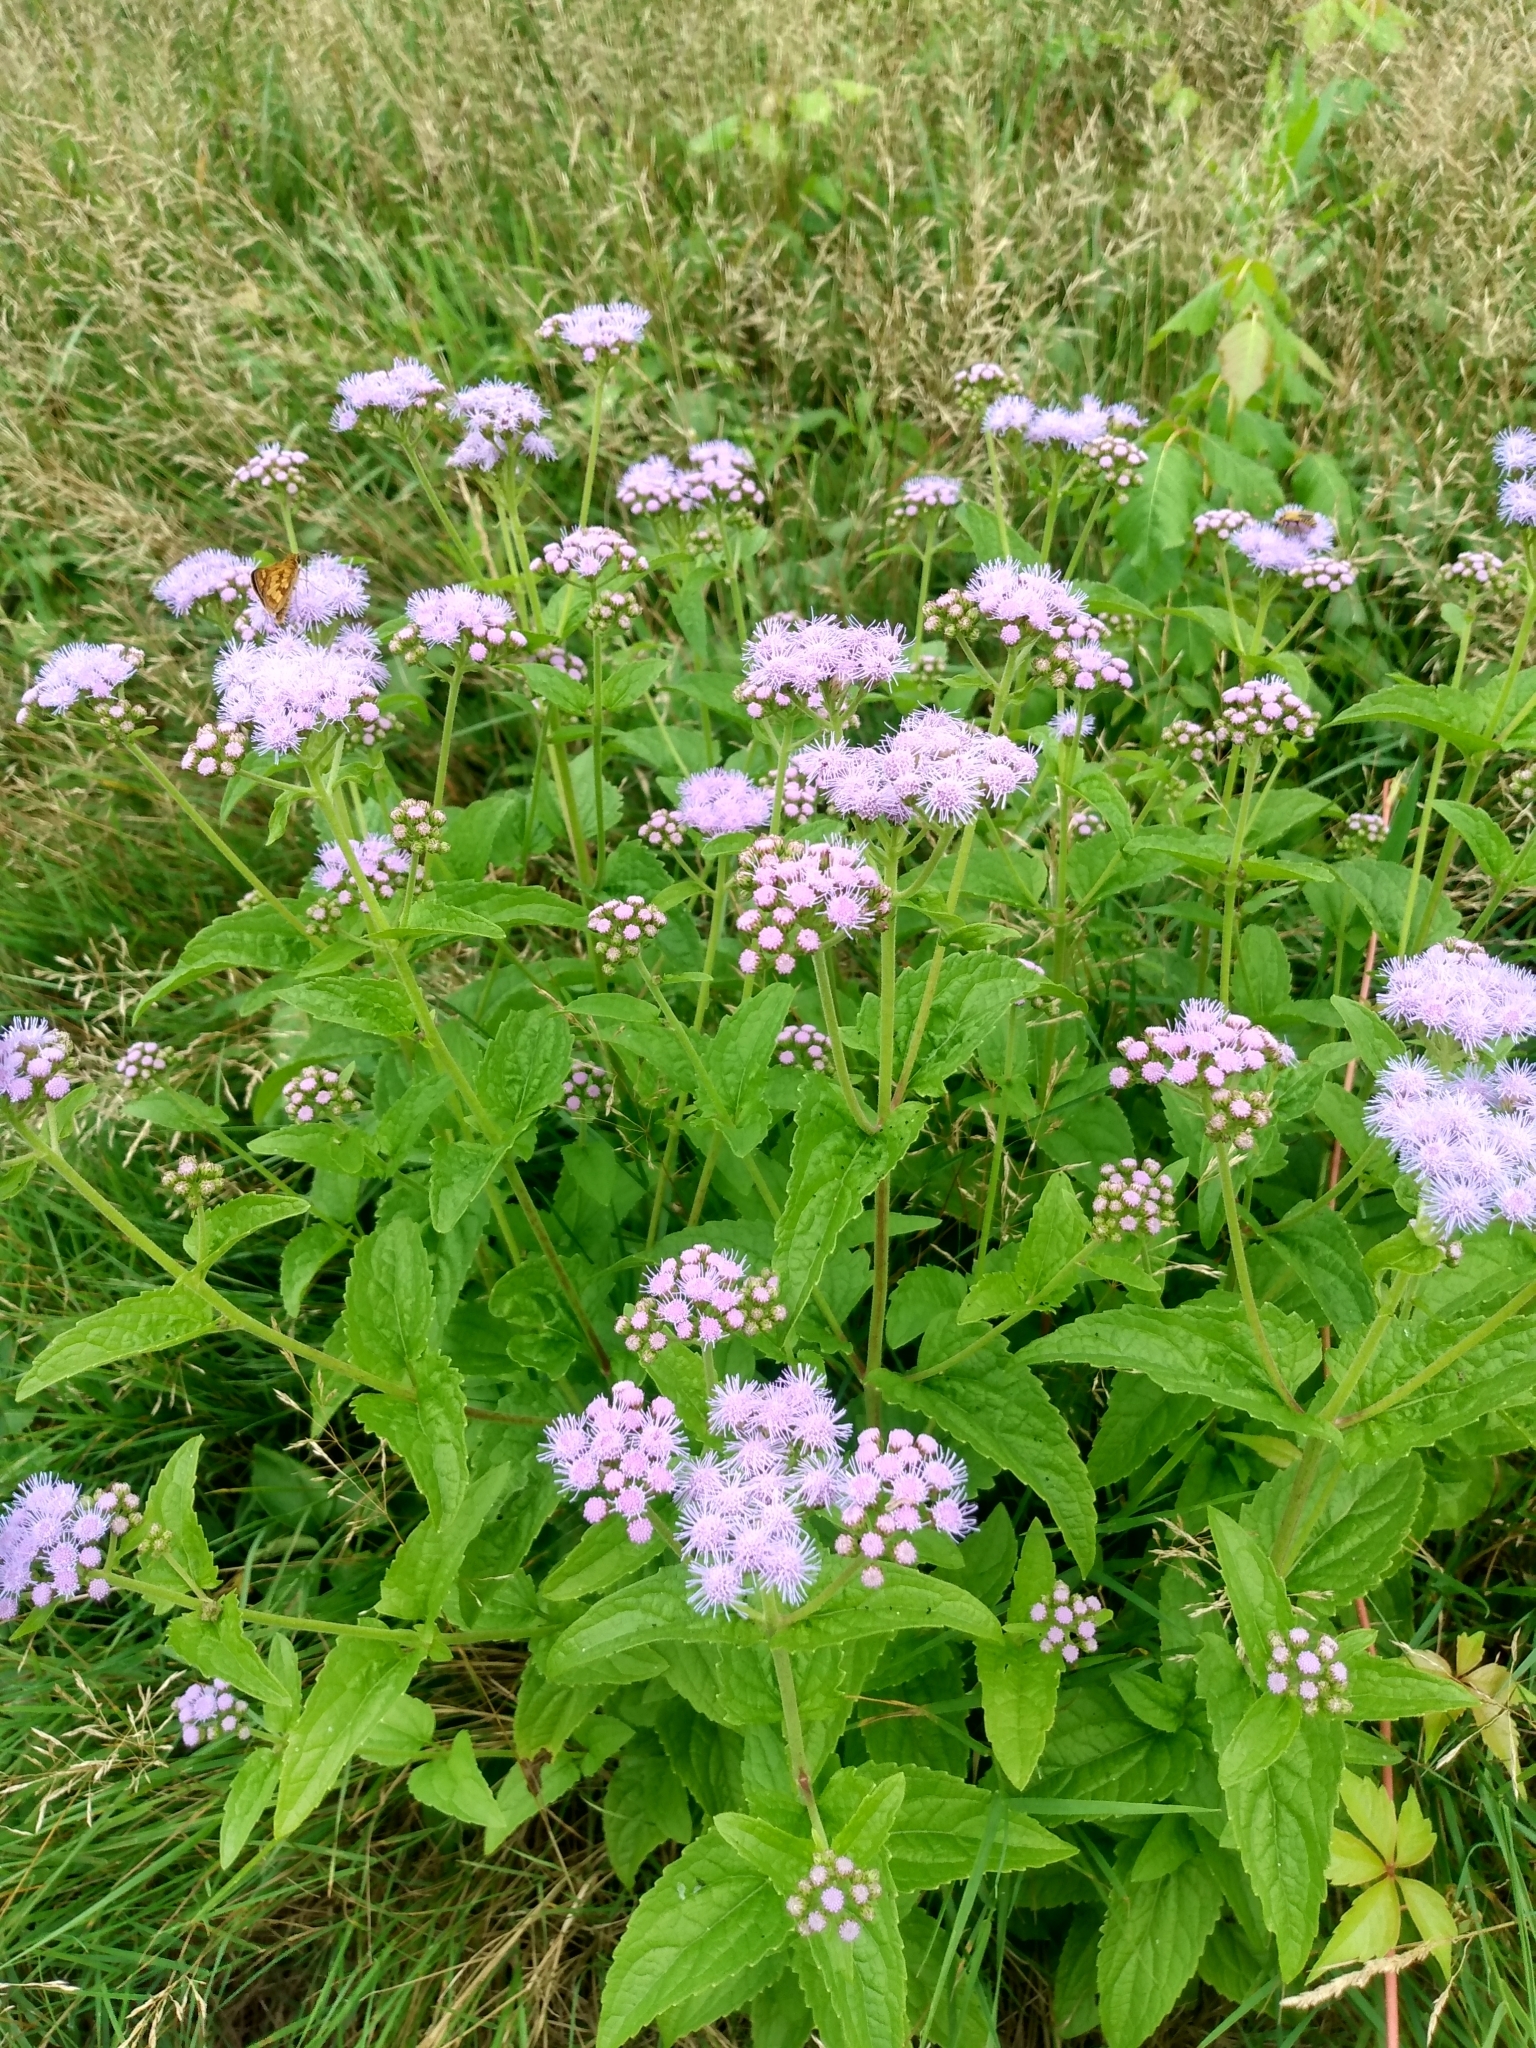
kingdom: Plantae
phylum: Tracheophyta
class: Magnoliopsida
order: Asterales
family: Asteraceae
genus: Conoclinium
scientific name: Conoclinium coelestinum
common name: Blue mistflower
